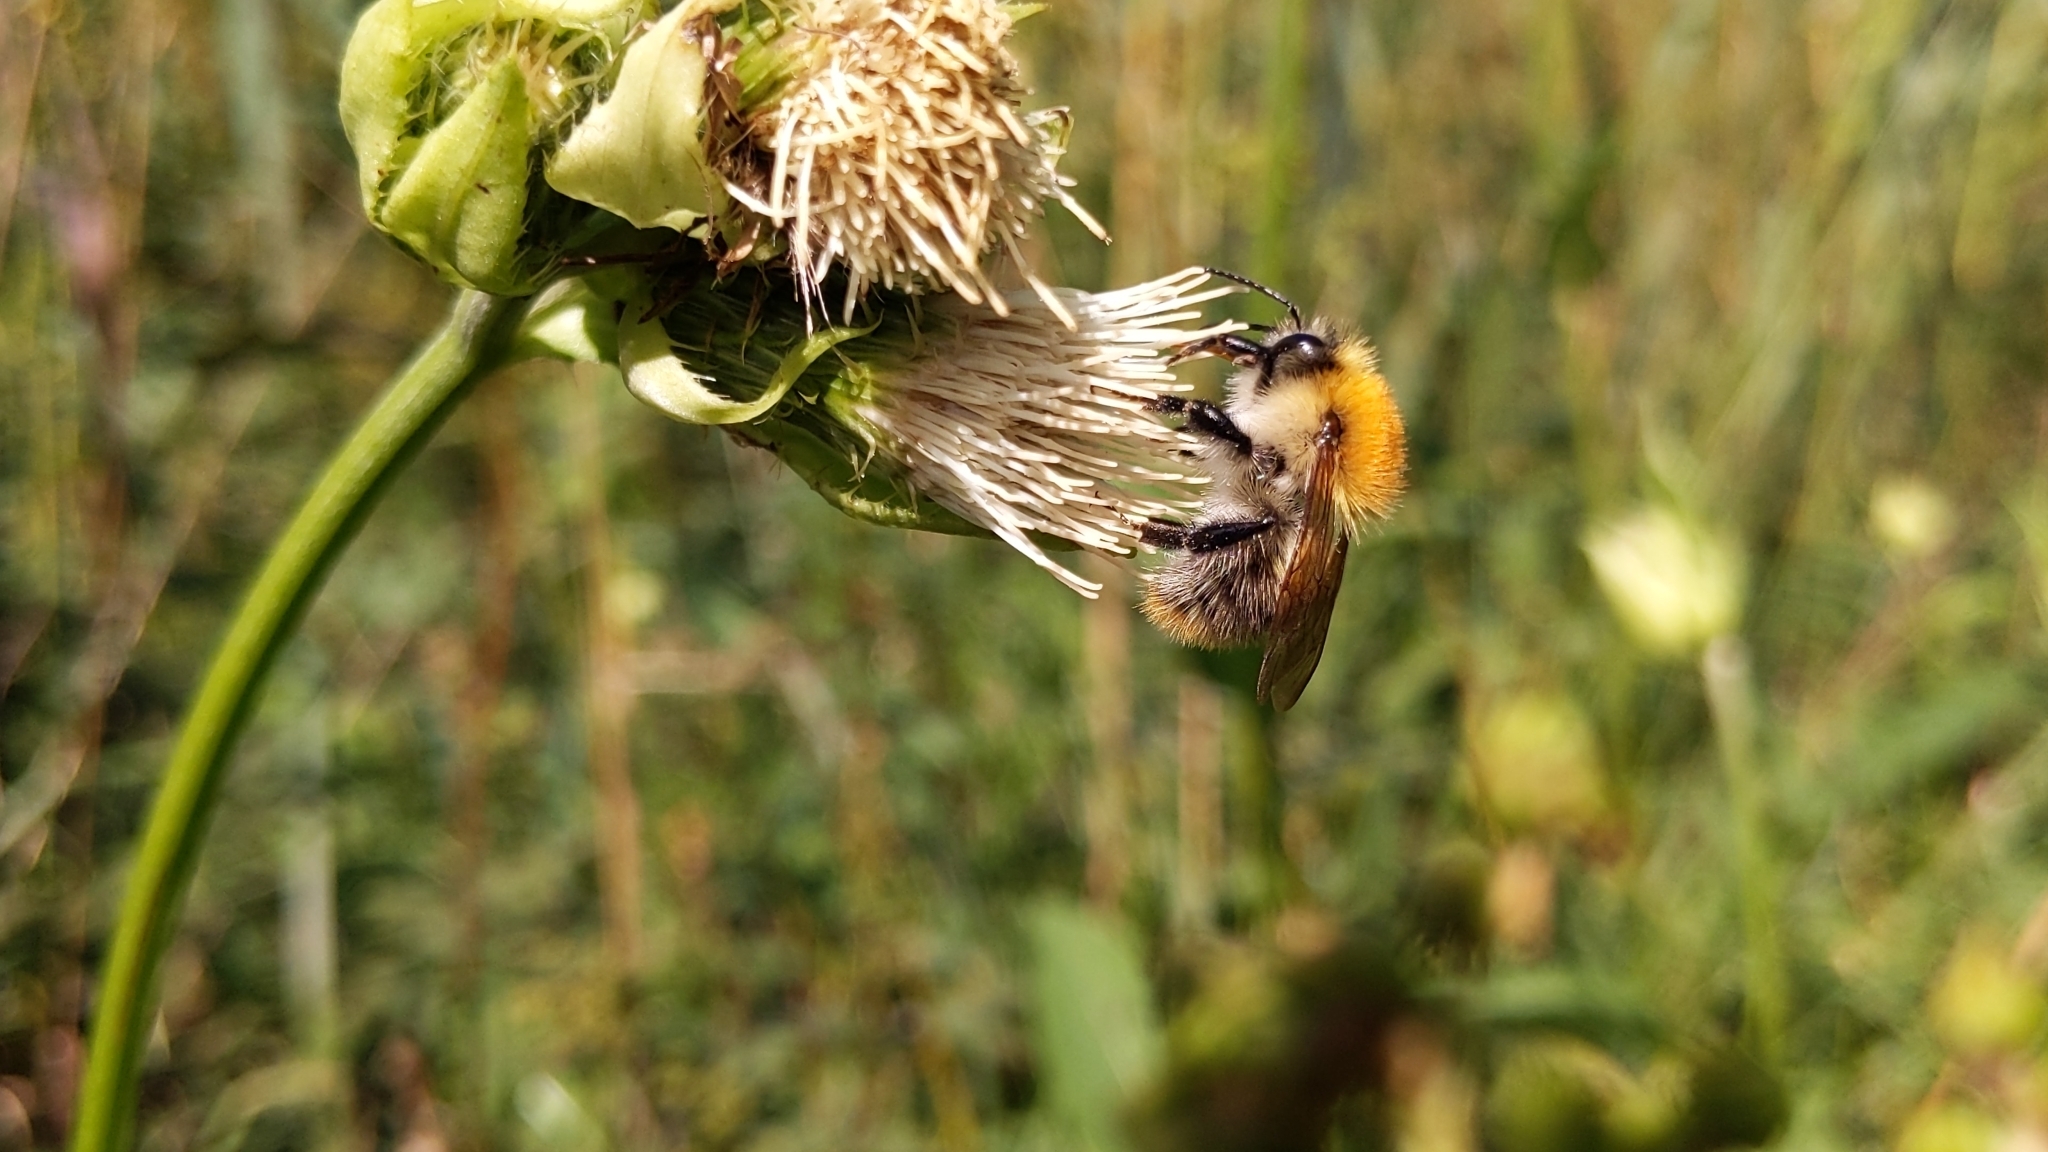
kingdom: Animalia
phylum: Arthropoda
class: Insecta
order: Hymenoptera
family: Apidae
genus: Bombus
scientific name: Bombus pascuorum
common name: Common carder bee
